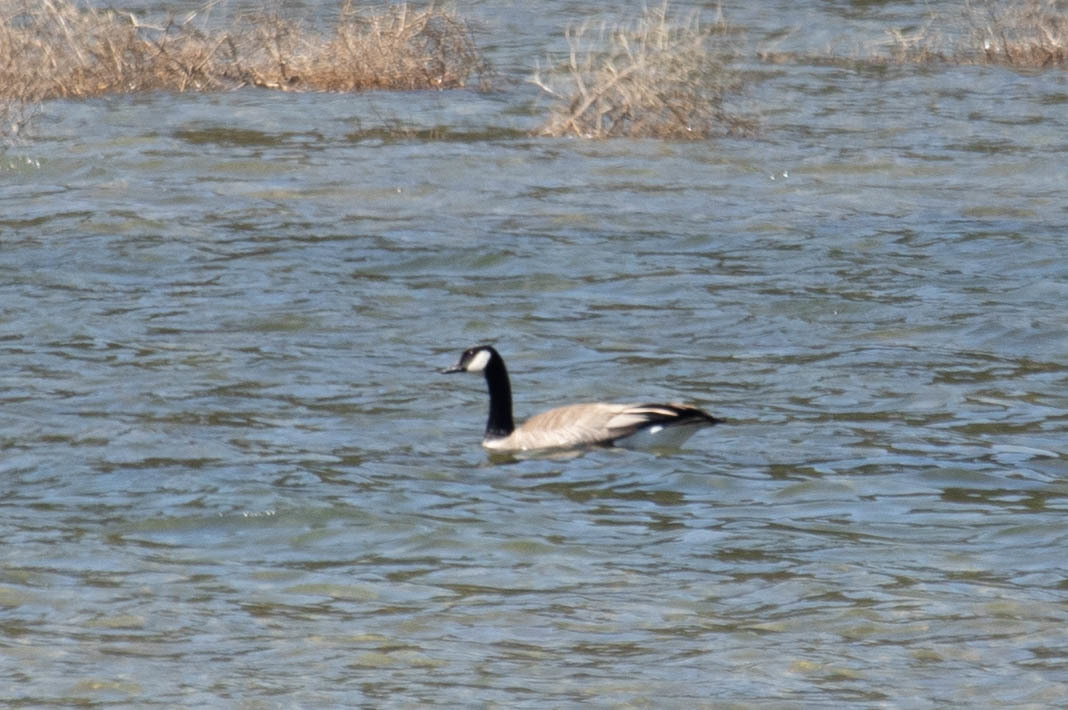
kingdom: Animalia
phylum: Chordata
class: Aves
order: Anseriformes
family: Anatidae
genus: Branta
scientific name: Branta canadensis
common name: Canada goose
